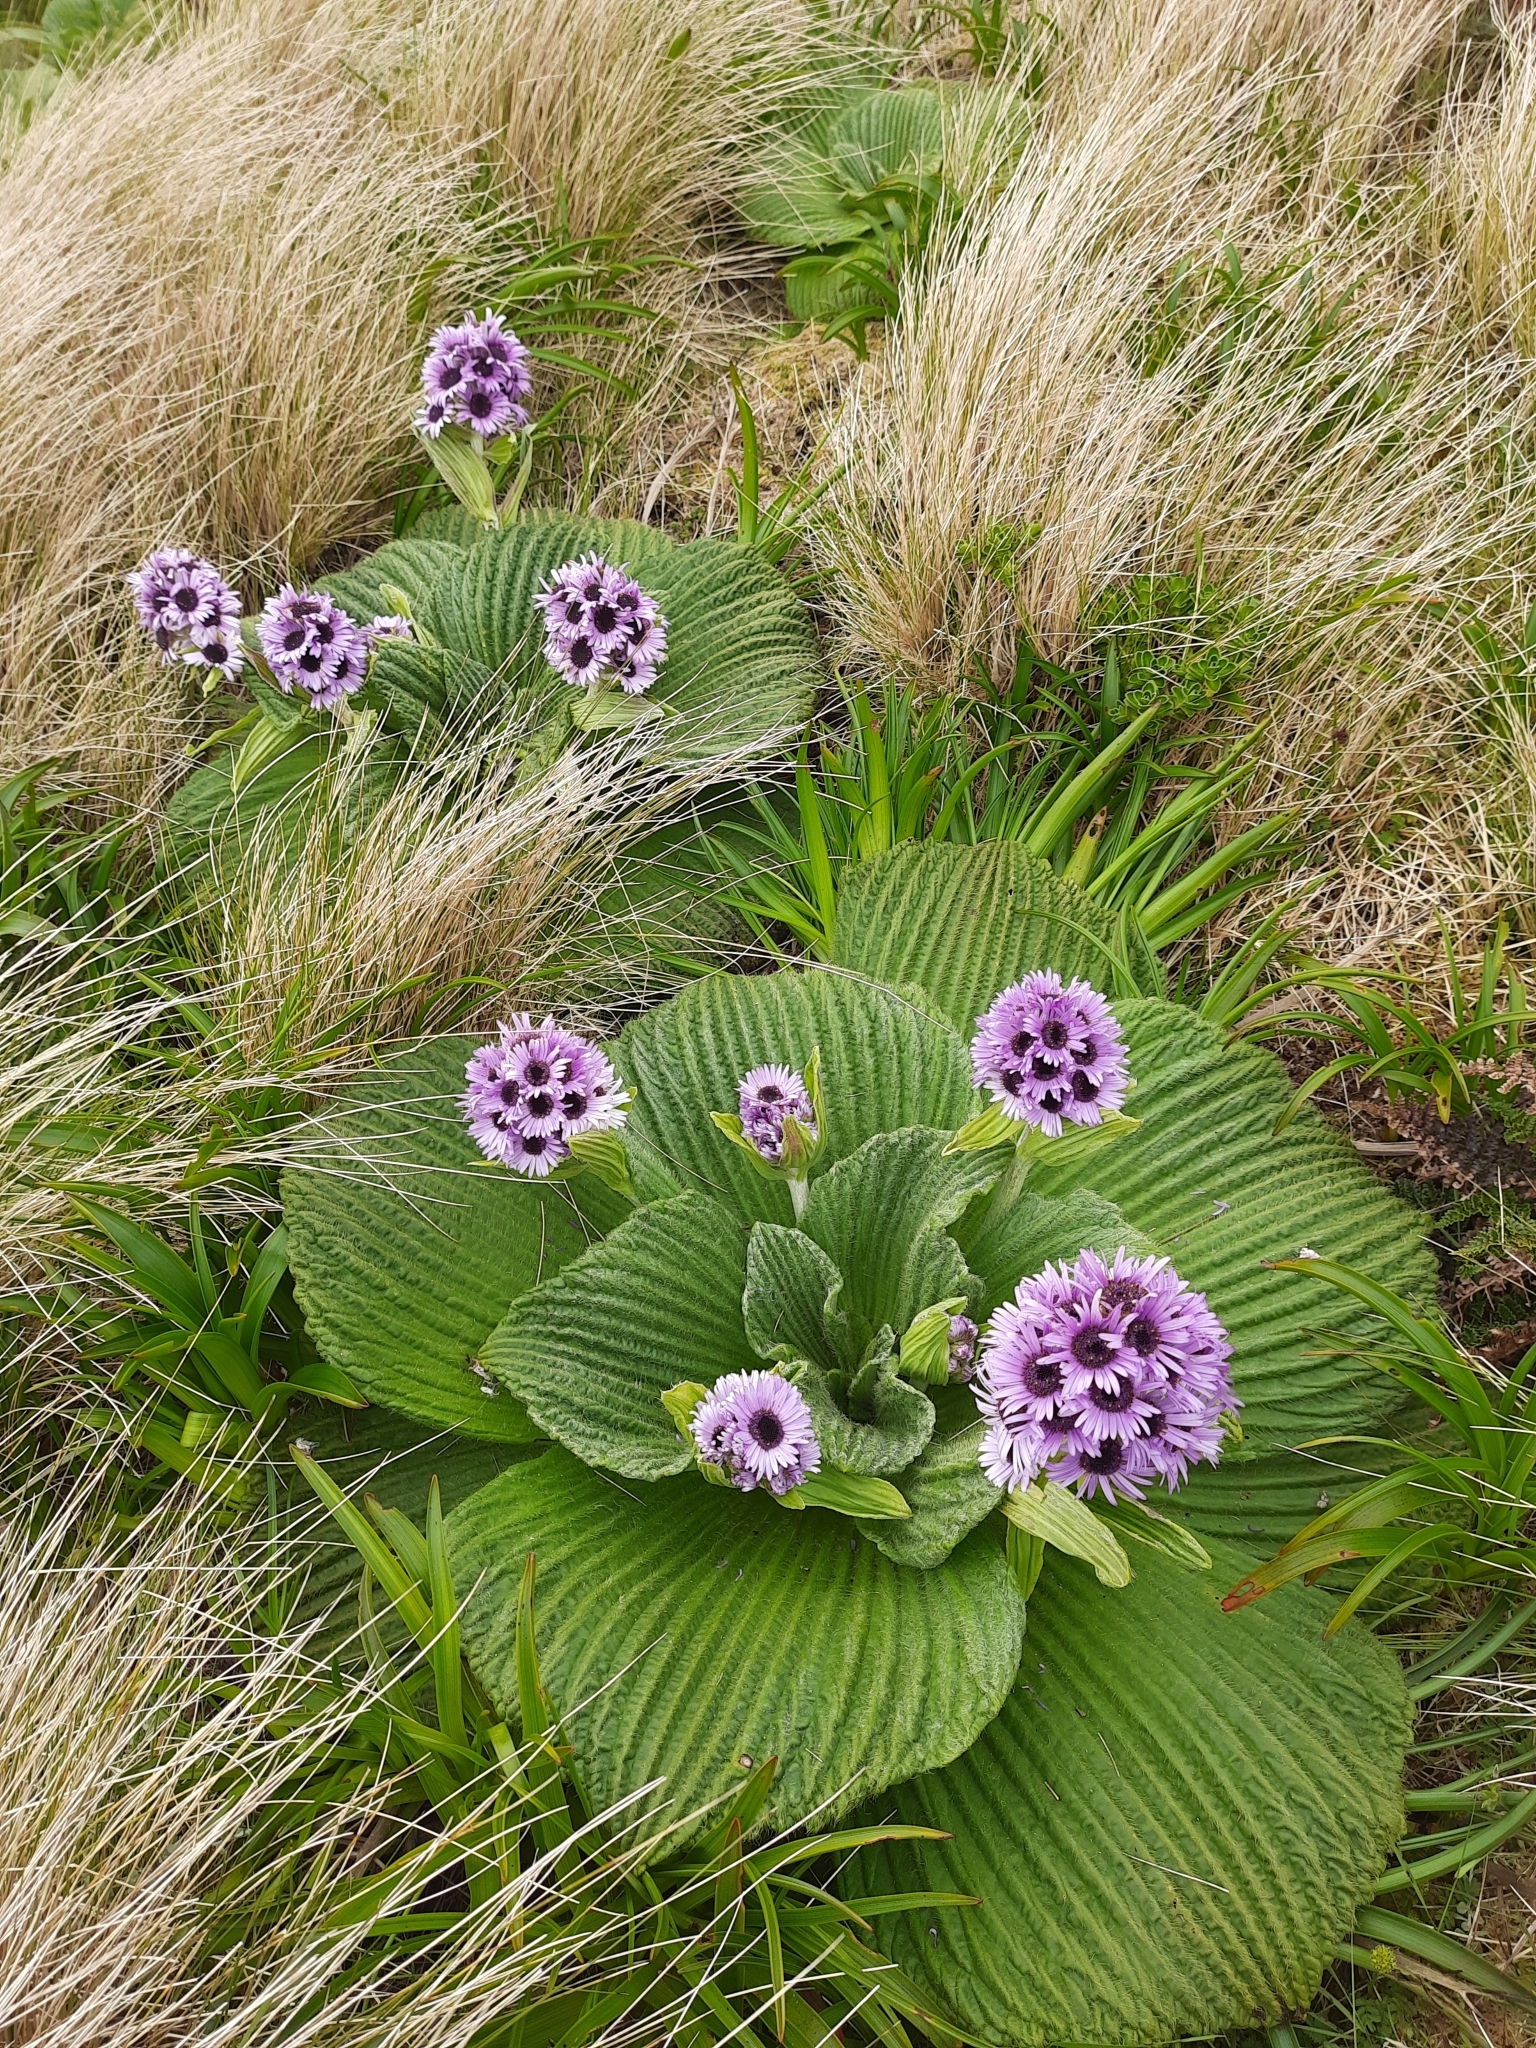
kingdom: Plantae
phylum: Tracheophyta
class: Magnoliopsida
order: Asterales
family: Asteraceae
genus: Pleurophyllum
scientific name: Pleurophyllum speciosum
